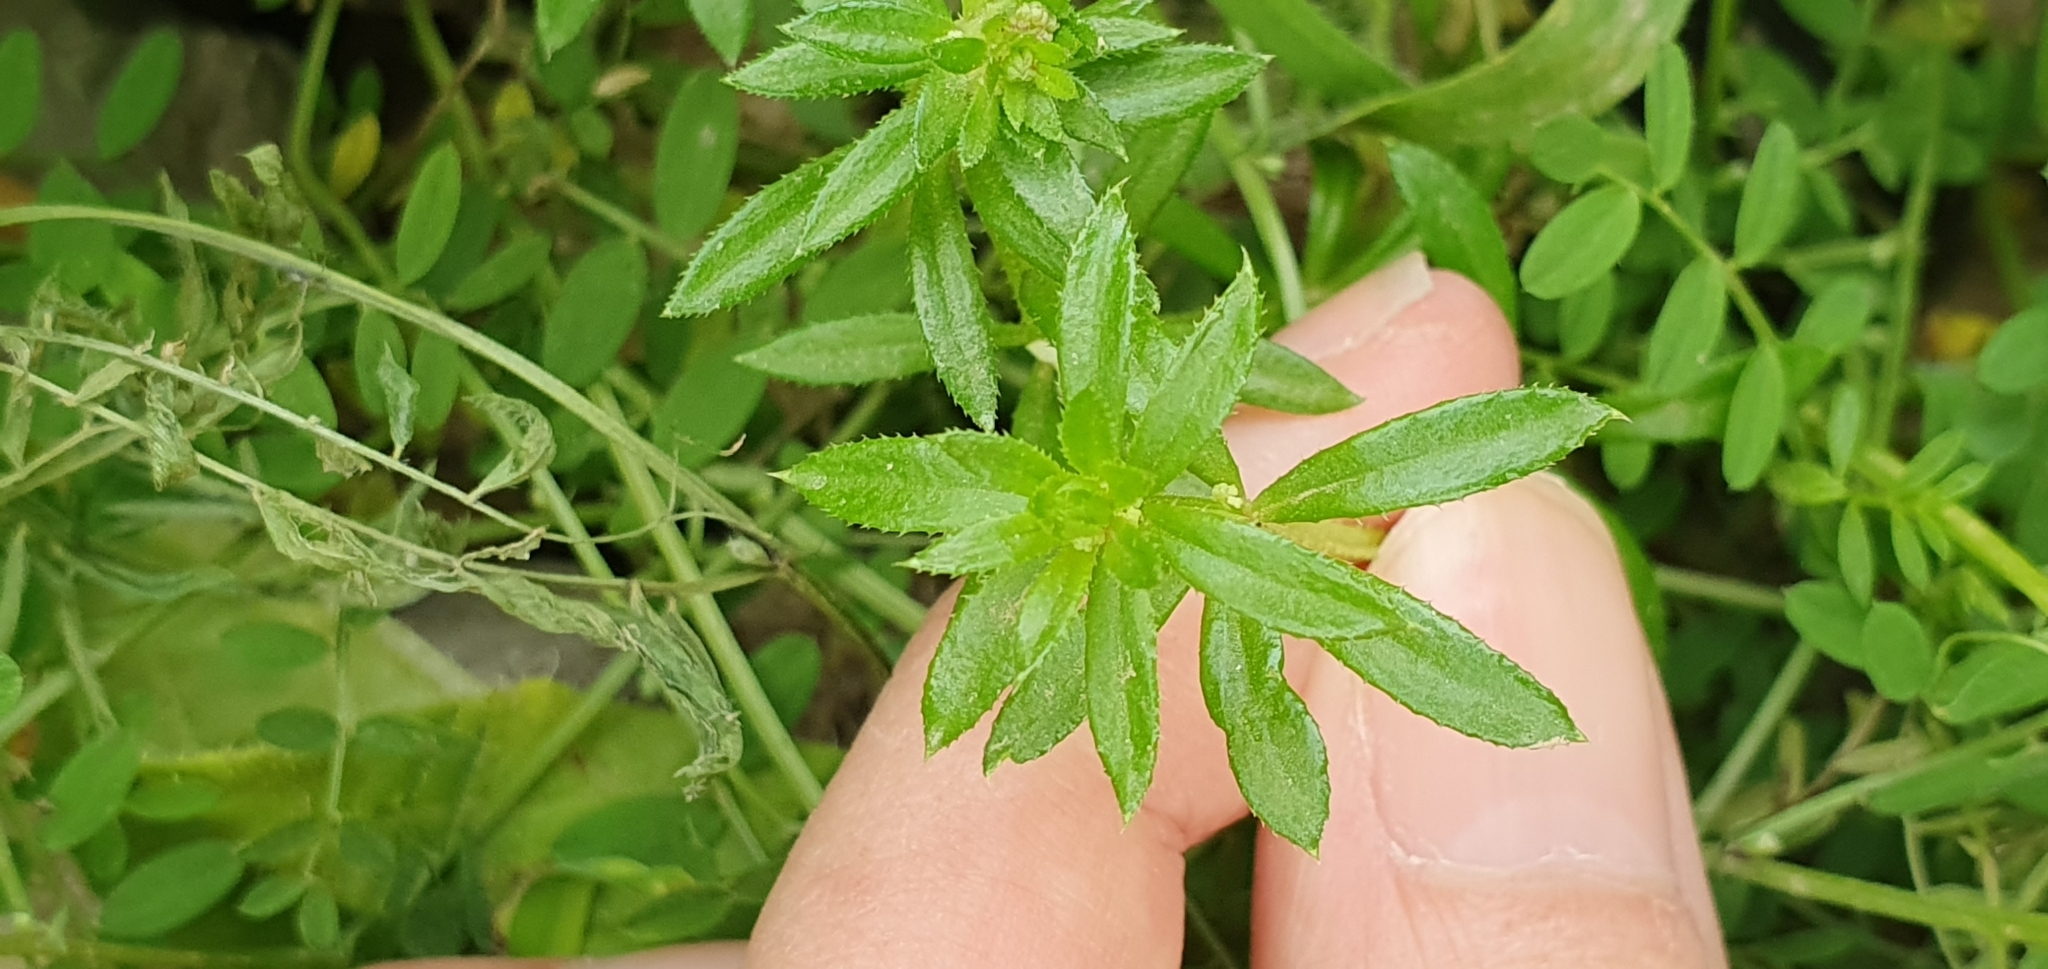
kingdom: Plantae
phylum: Tracheophyta
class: Magnoliopsida
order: Gentianales
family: Rubiaceae
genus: Galium
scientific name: Galium aparine
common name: Cleavers
